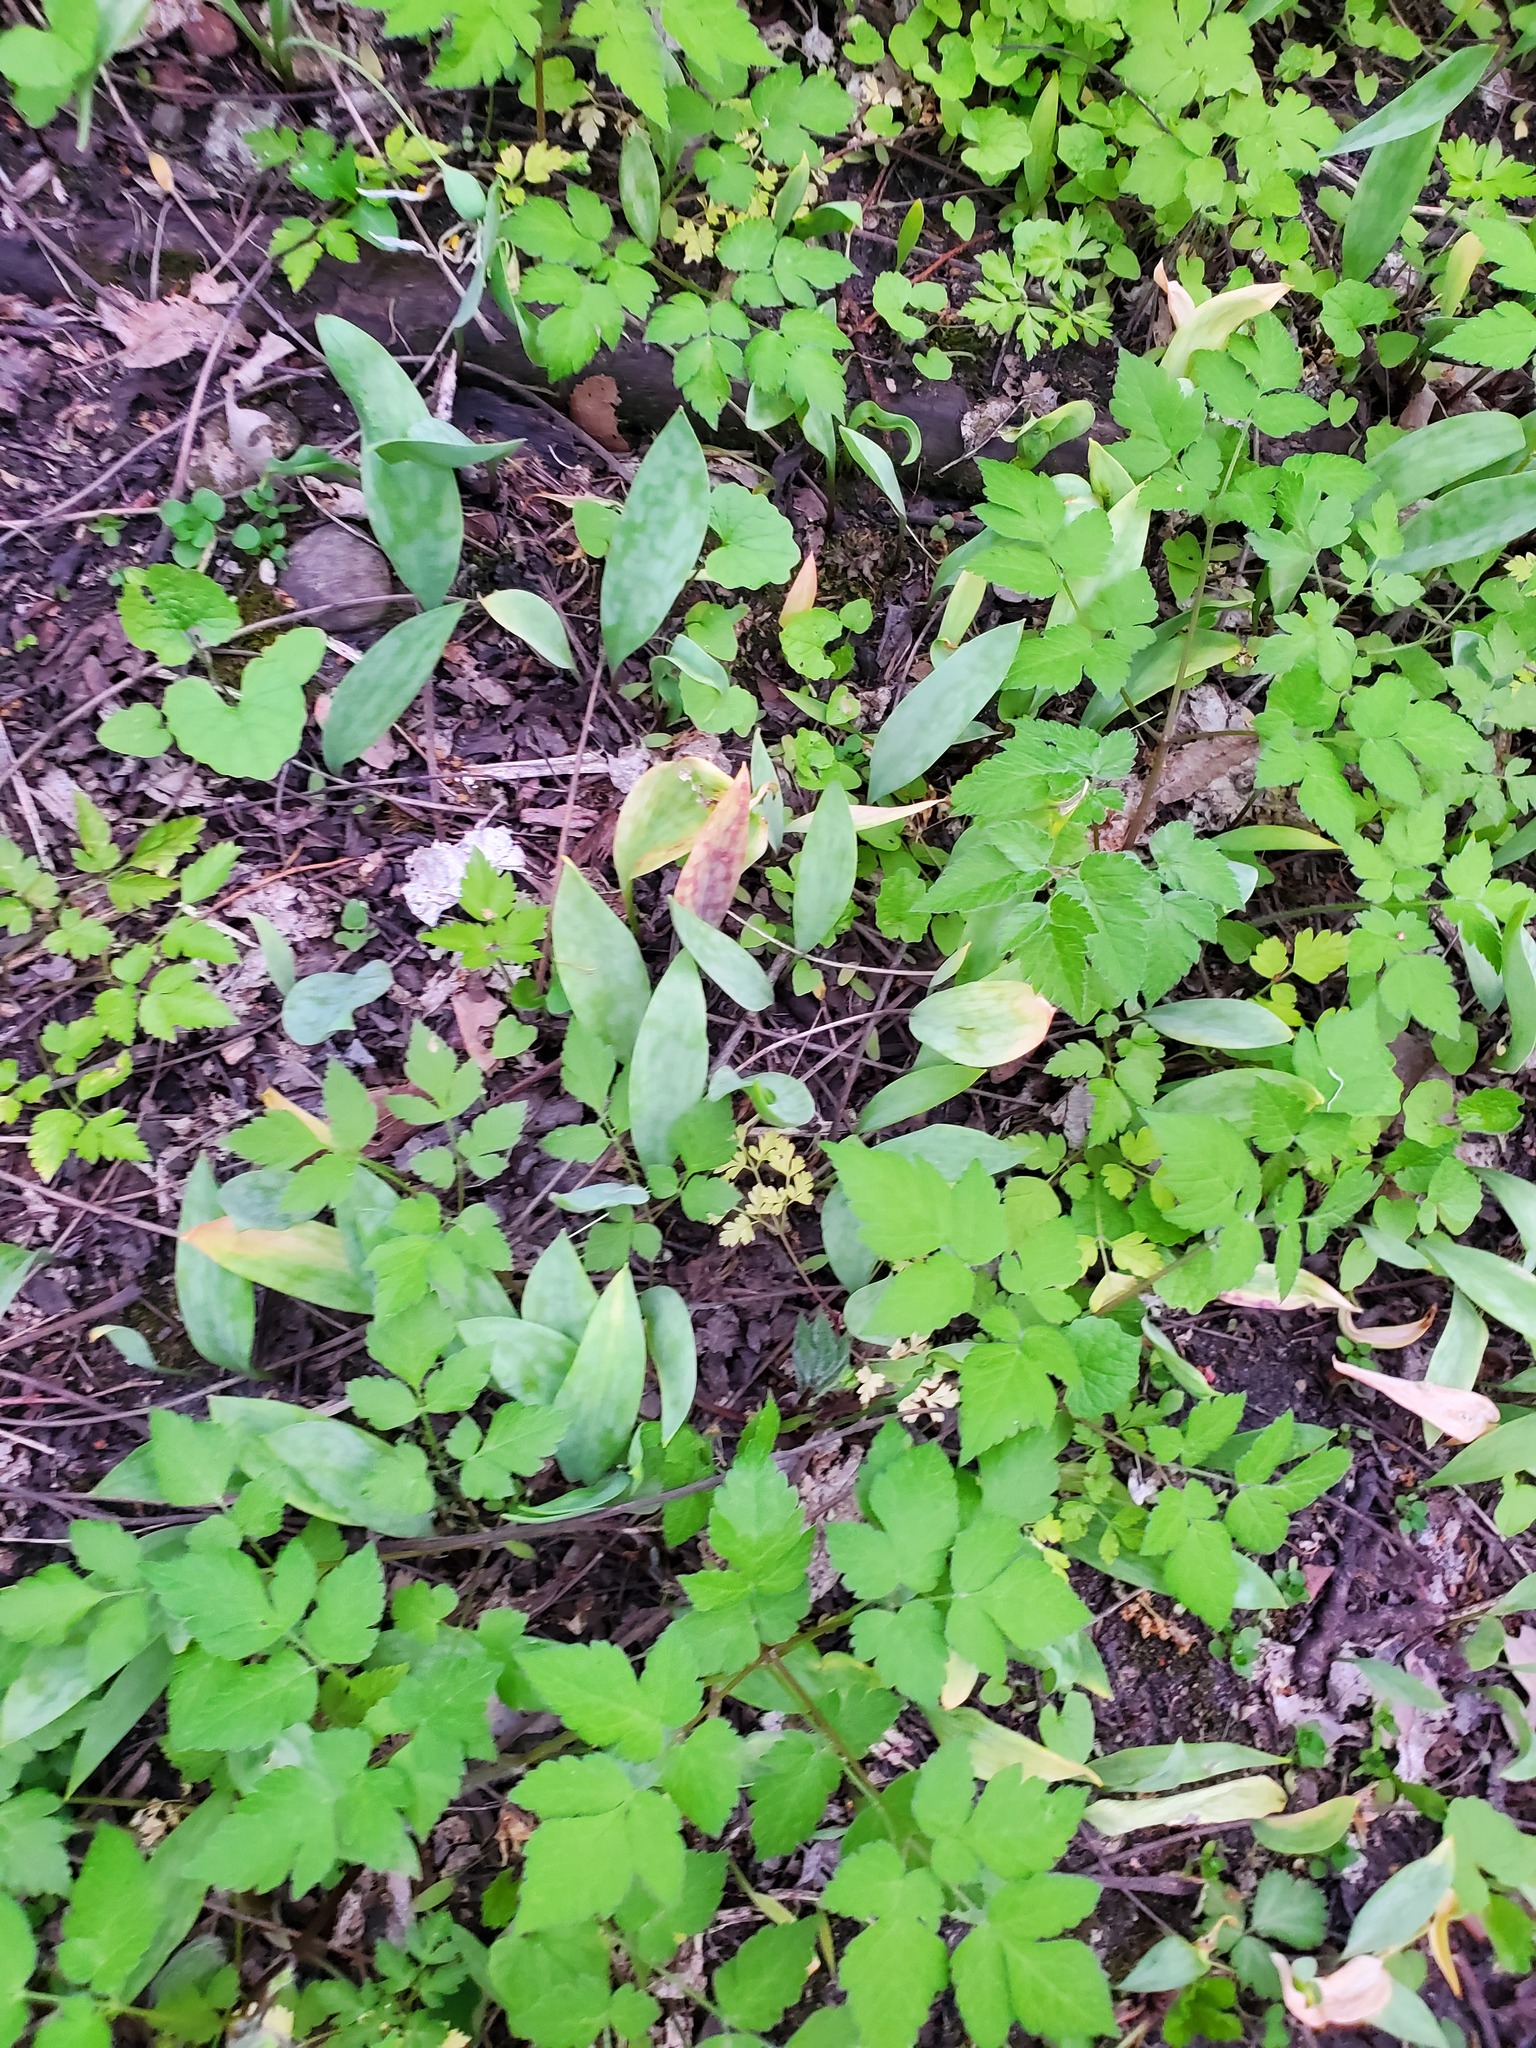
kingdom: Plantae
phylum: Tracheophyta
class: Liliopsida
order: Liliales
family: Liliaceae
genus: Erythronium
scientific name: Erythronium albidum
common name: White trout-lily
